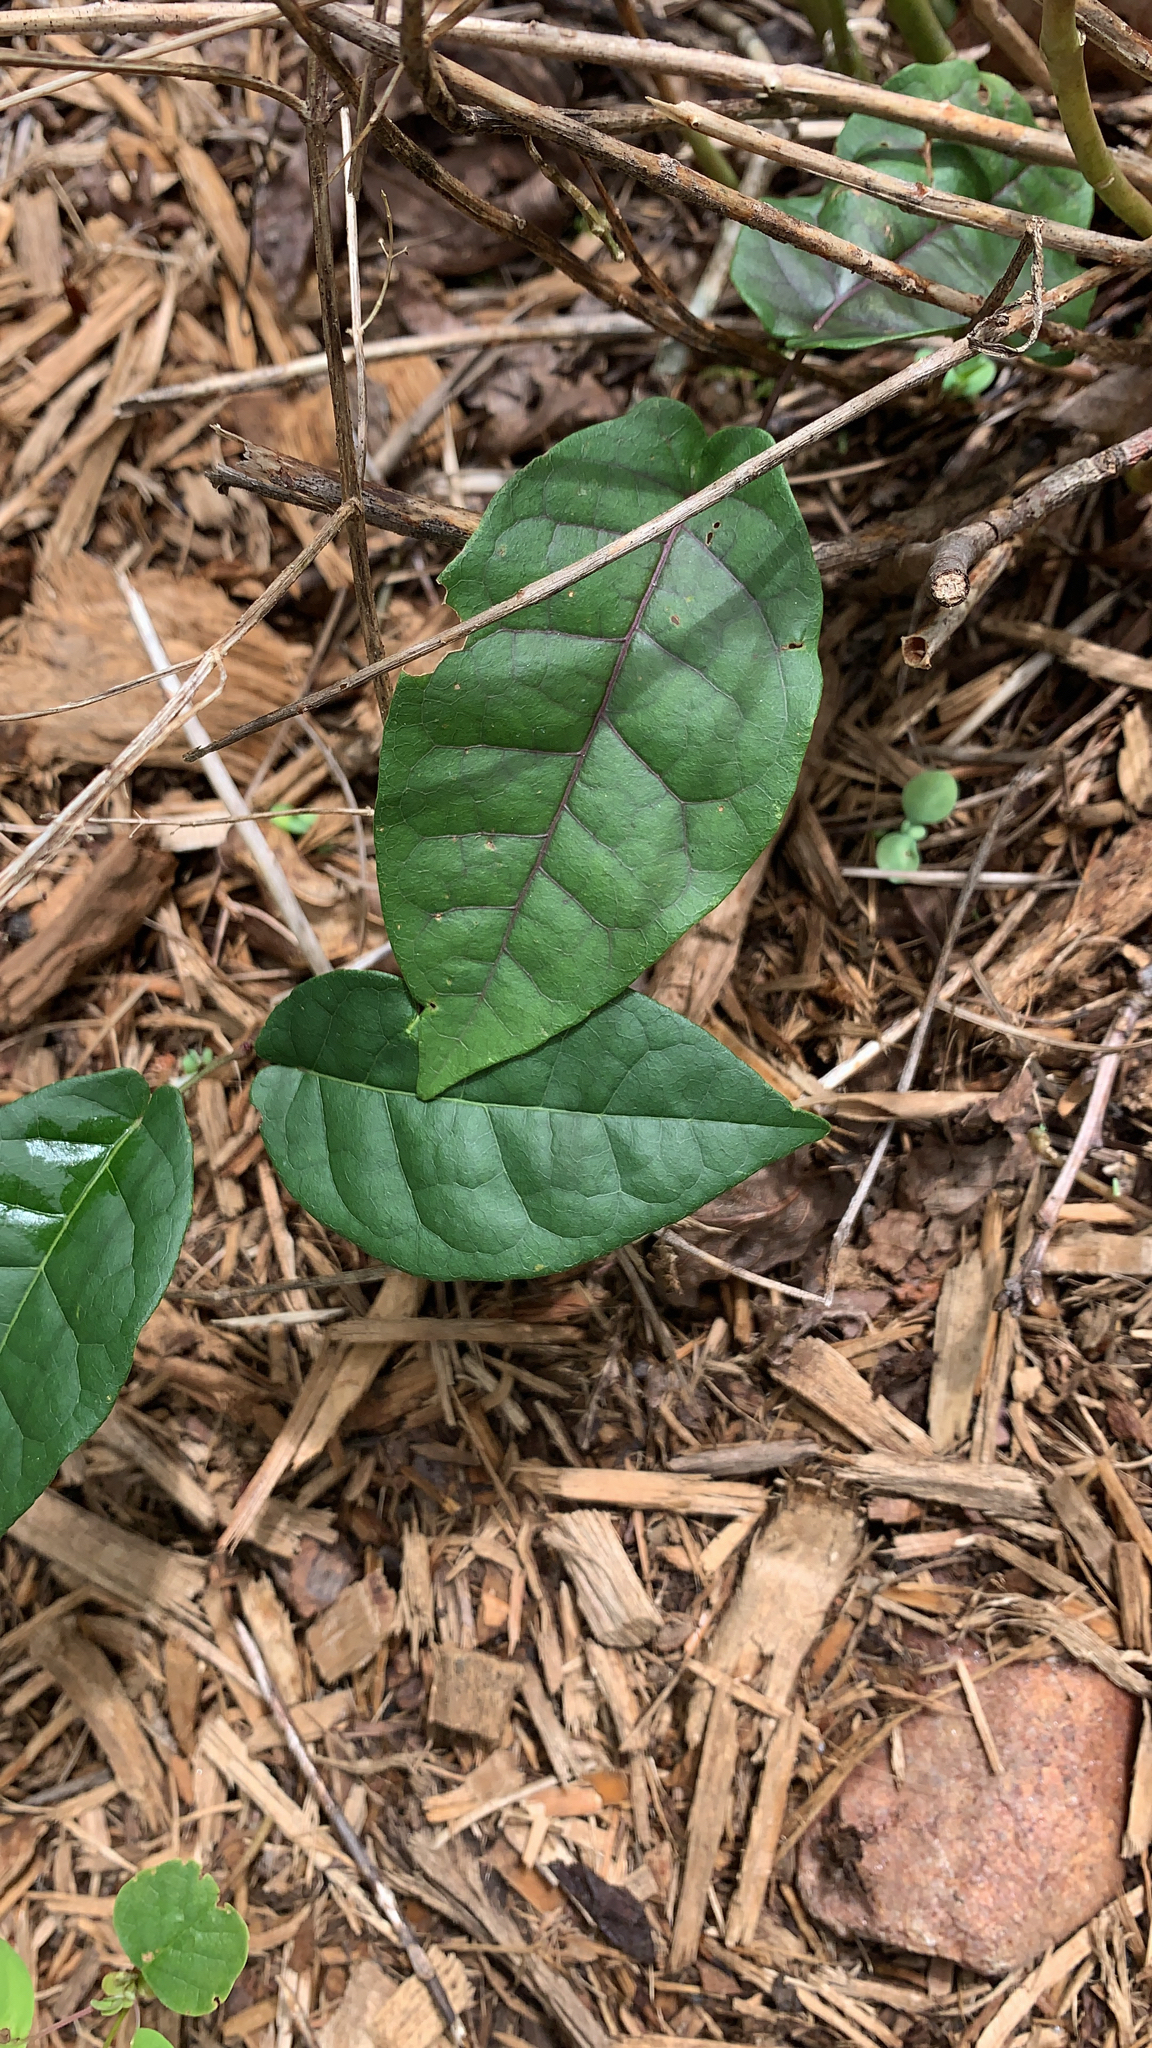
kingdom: Plantae
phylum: Tracheophyta
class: Magnoliopsida
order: Lamiales
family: Bignoniaceae
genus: Bignonia
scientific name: Bignonia capreolata
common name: Crossvine
